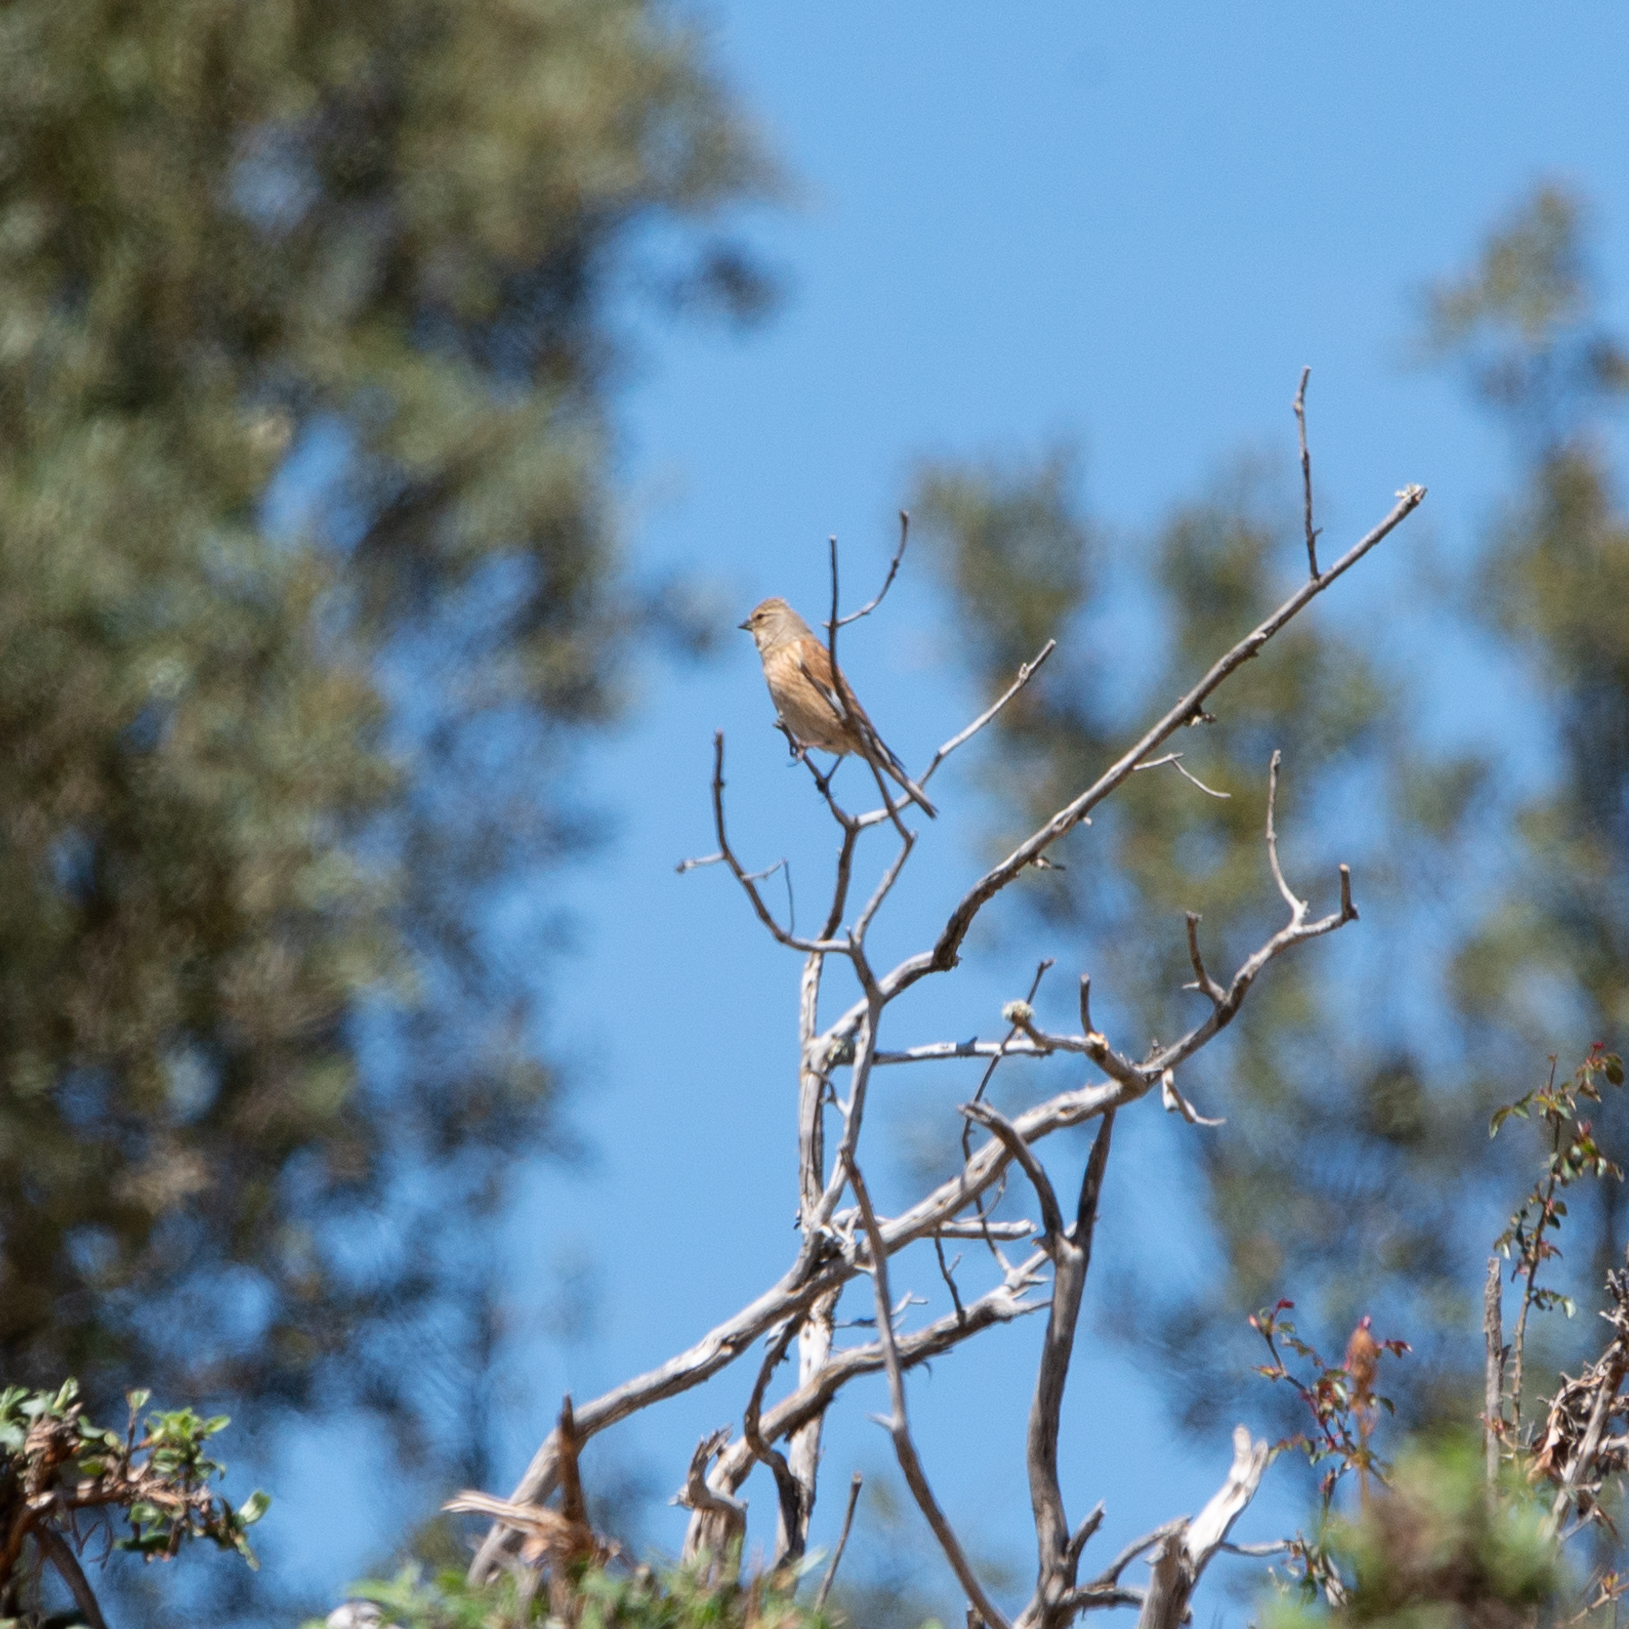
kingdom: Animalia
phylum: Chordata
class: Aves
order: Passeriformes
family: Fringillidae
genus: Linaria
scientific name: Linaria cannabina
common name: Common linnet
